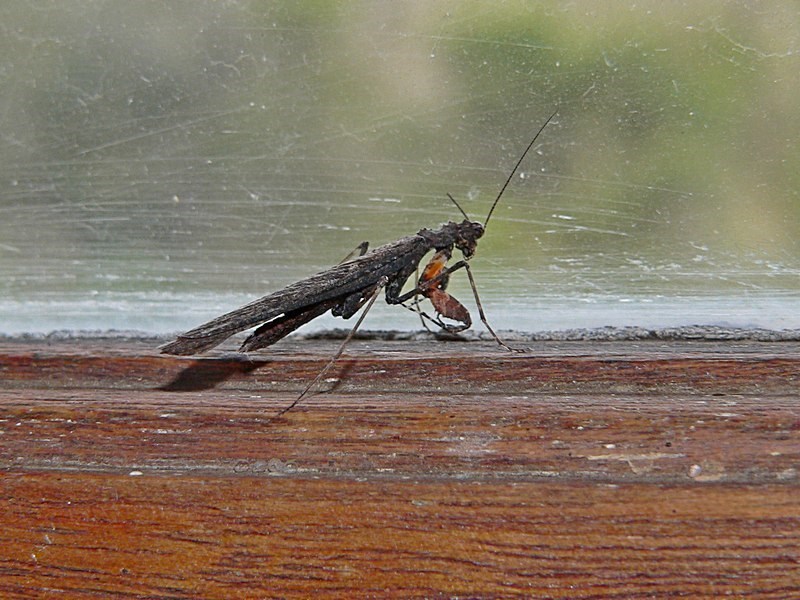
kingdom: Animalia
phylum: Arthropoda
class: Insecta
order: Mantodea
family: Nanomantidae
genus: Paraoxypilus
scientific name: Paraoxypilus tasmaniensis
